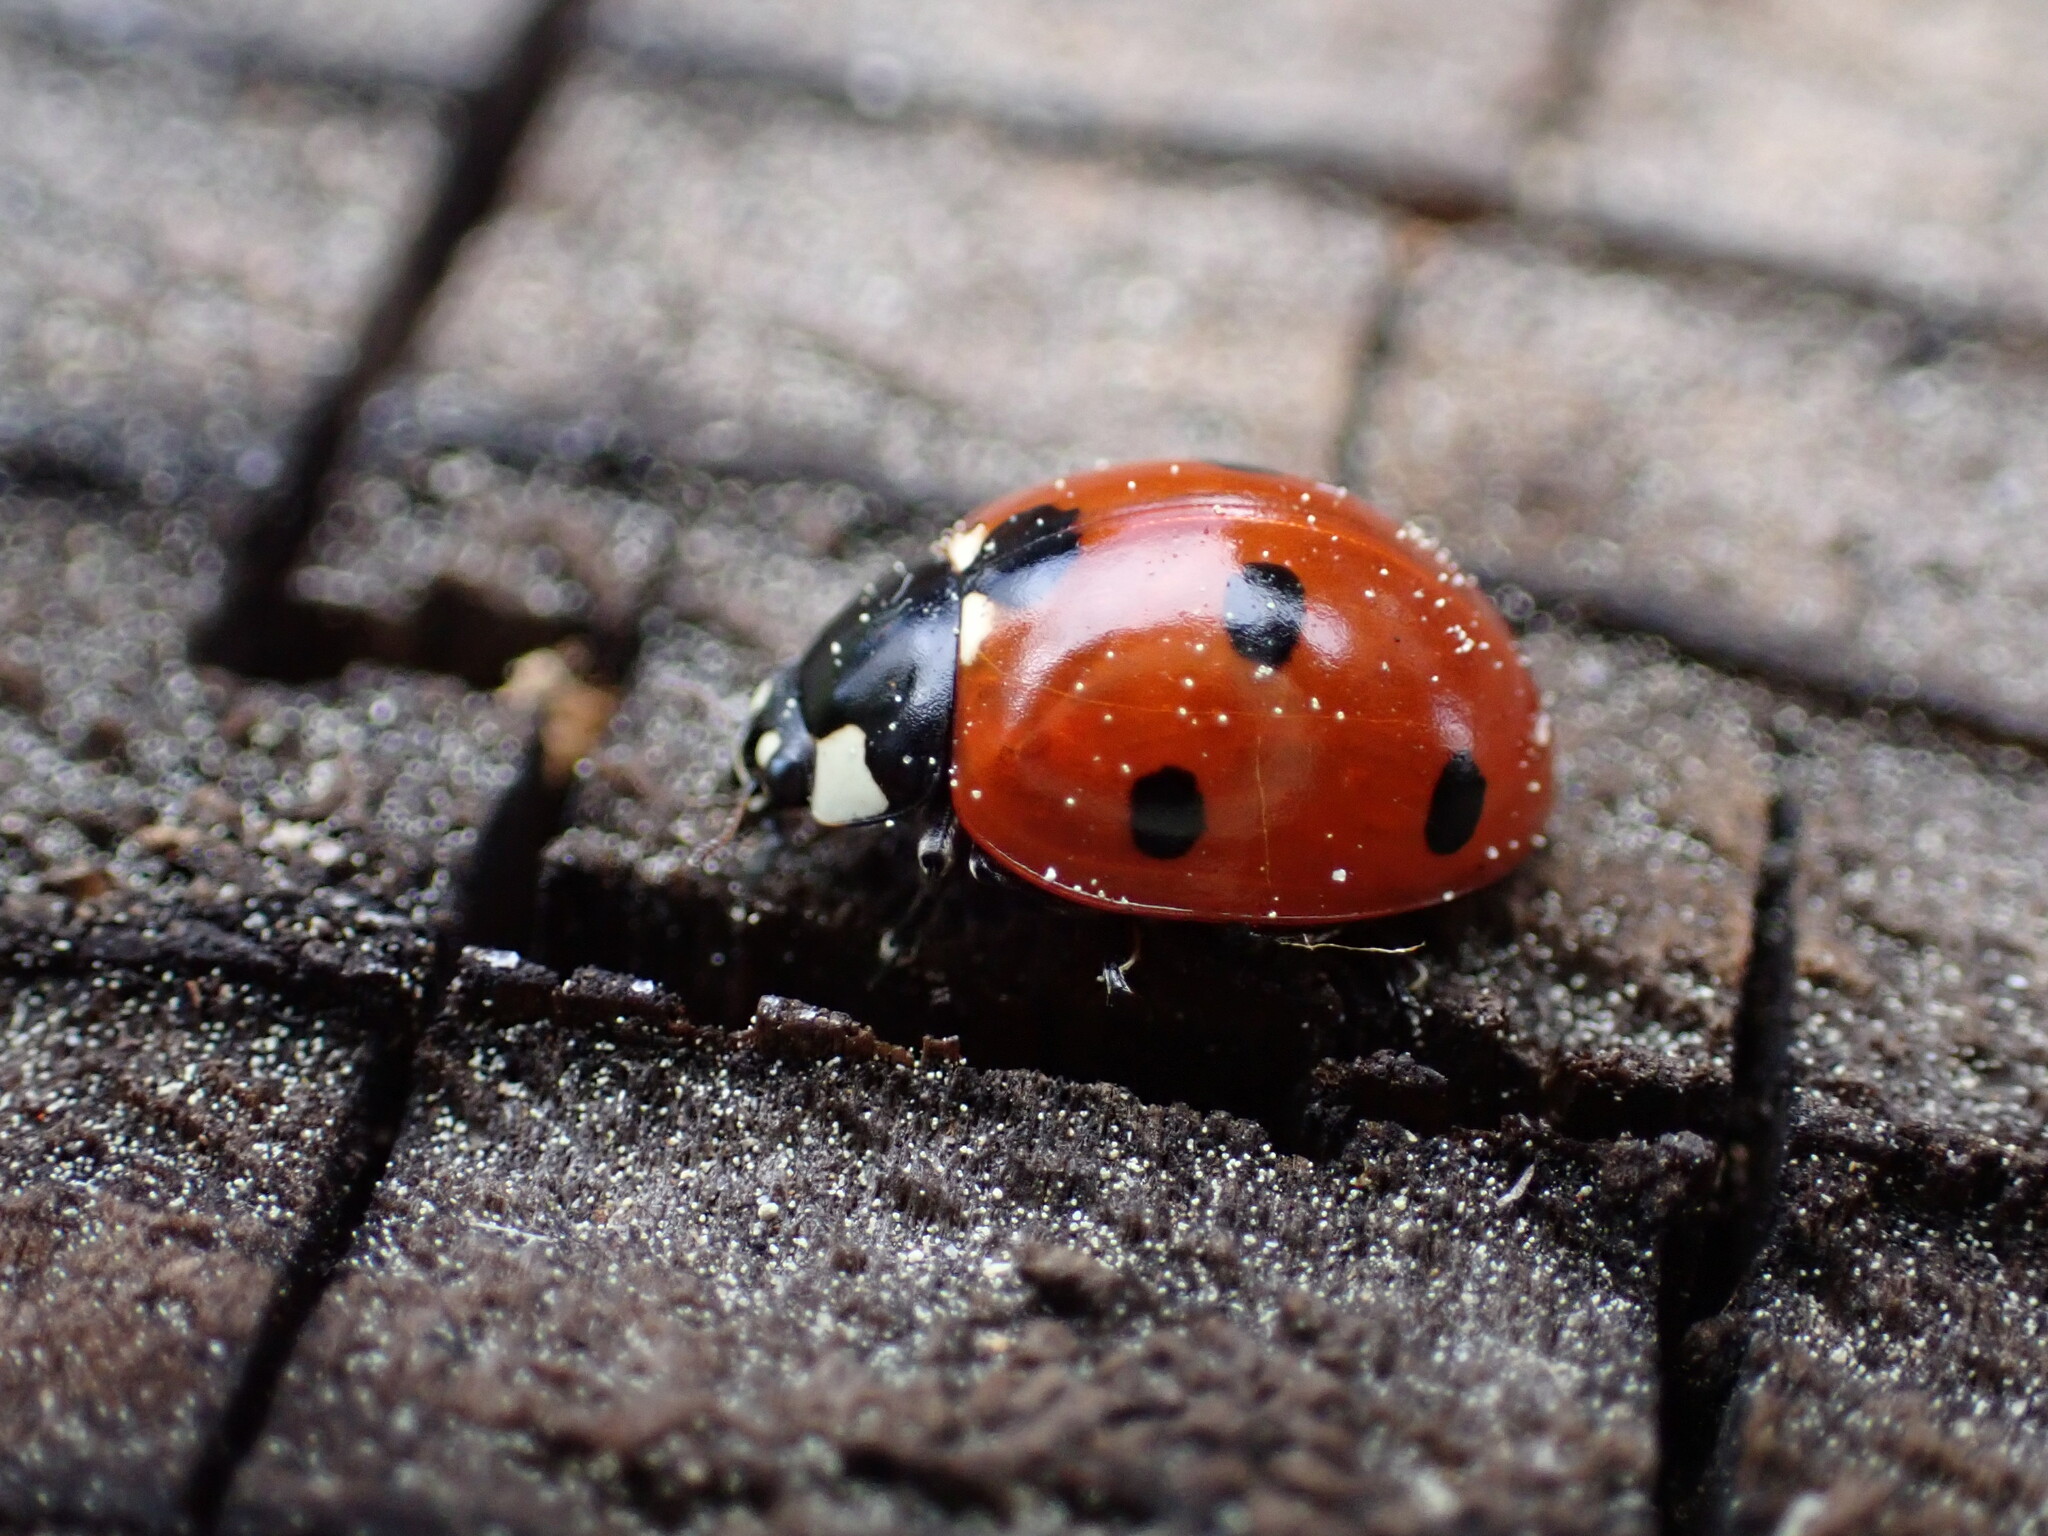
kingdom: Animalia
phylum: Arthropoda
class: Insecta
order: Coleoptera
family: Coccinellidae
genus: Coccinella
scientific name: Coccinella septempunctata
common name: Sevenspotted lady beetle
